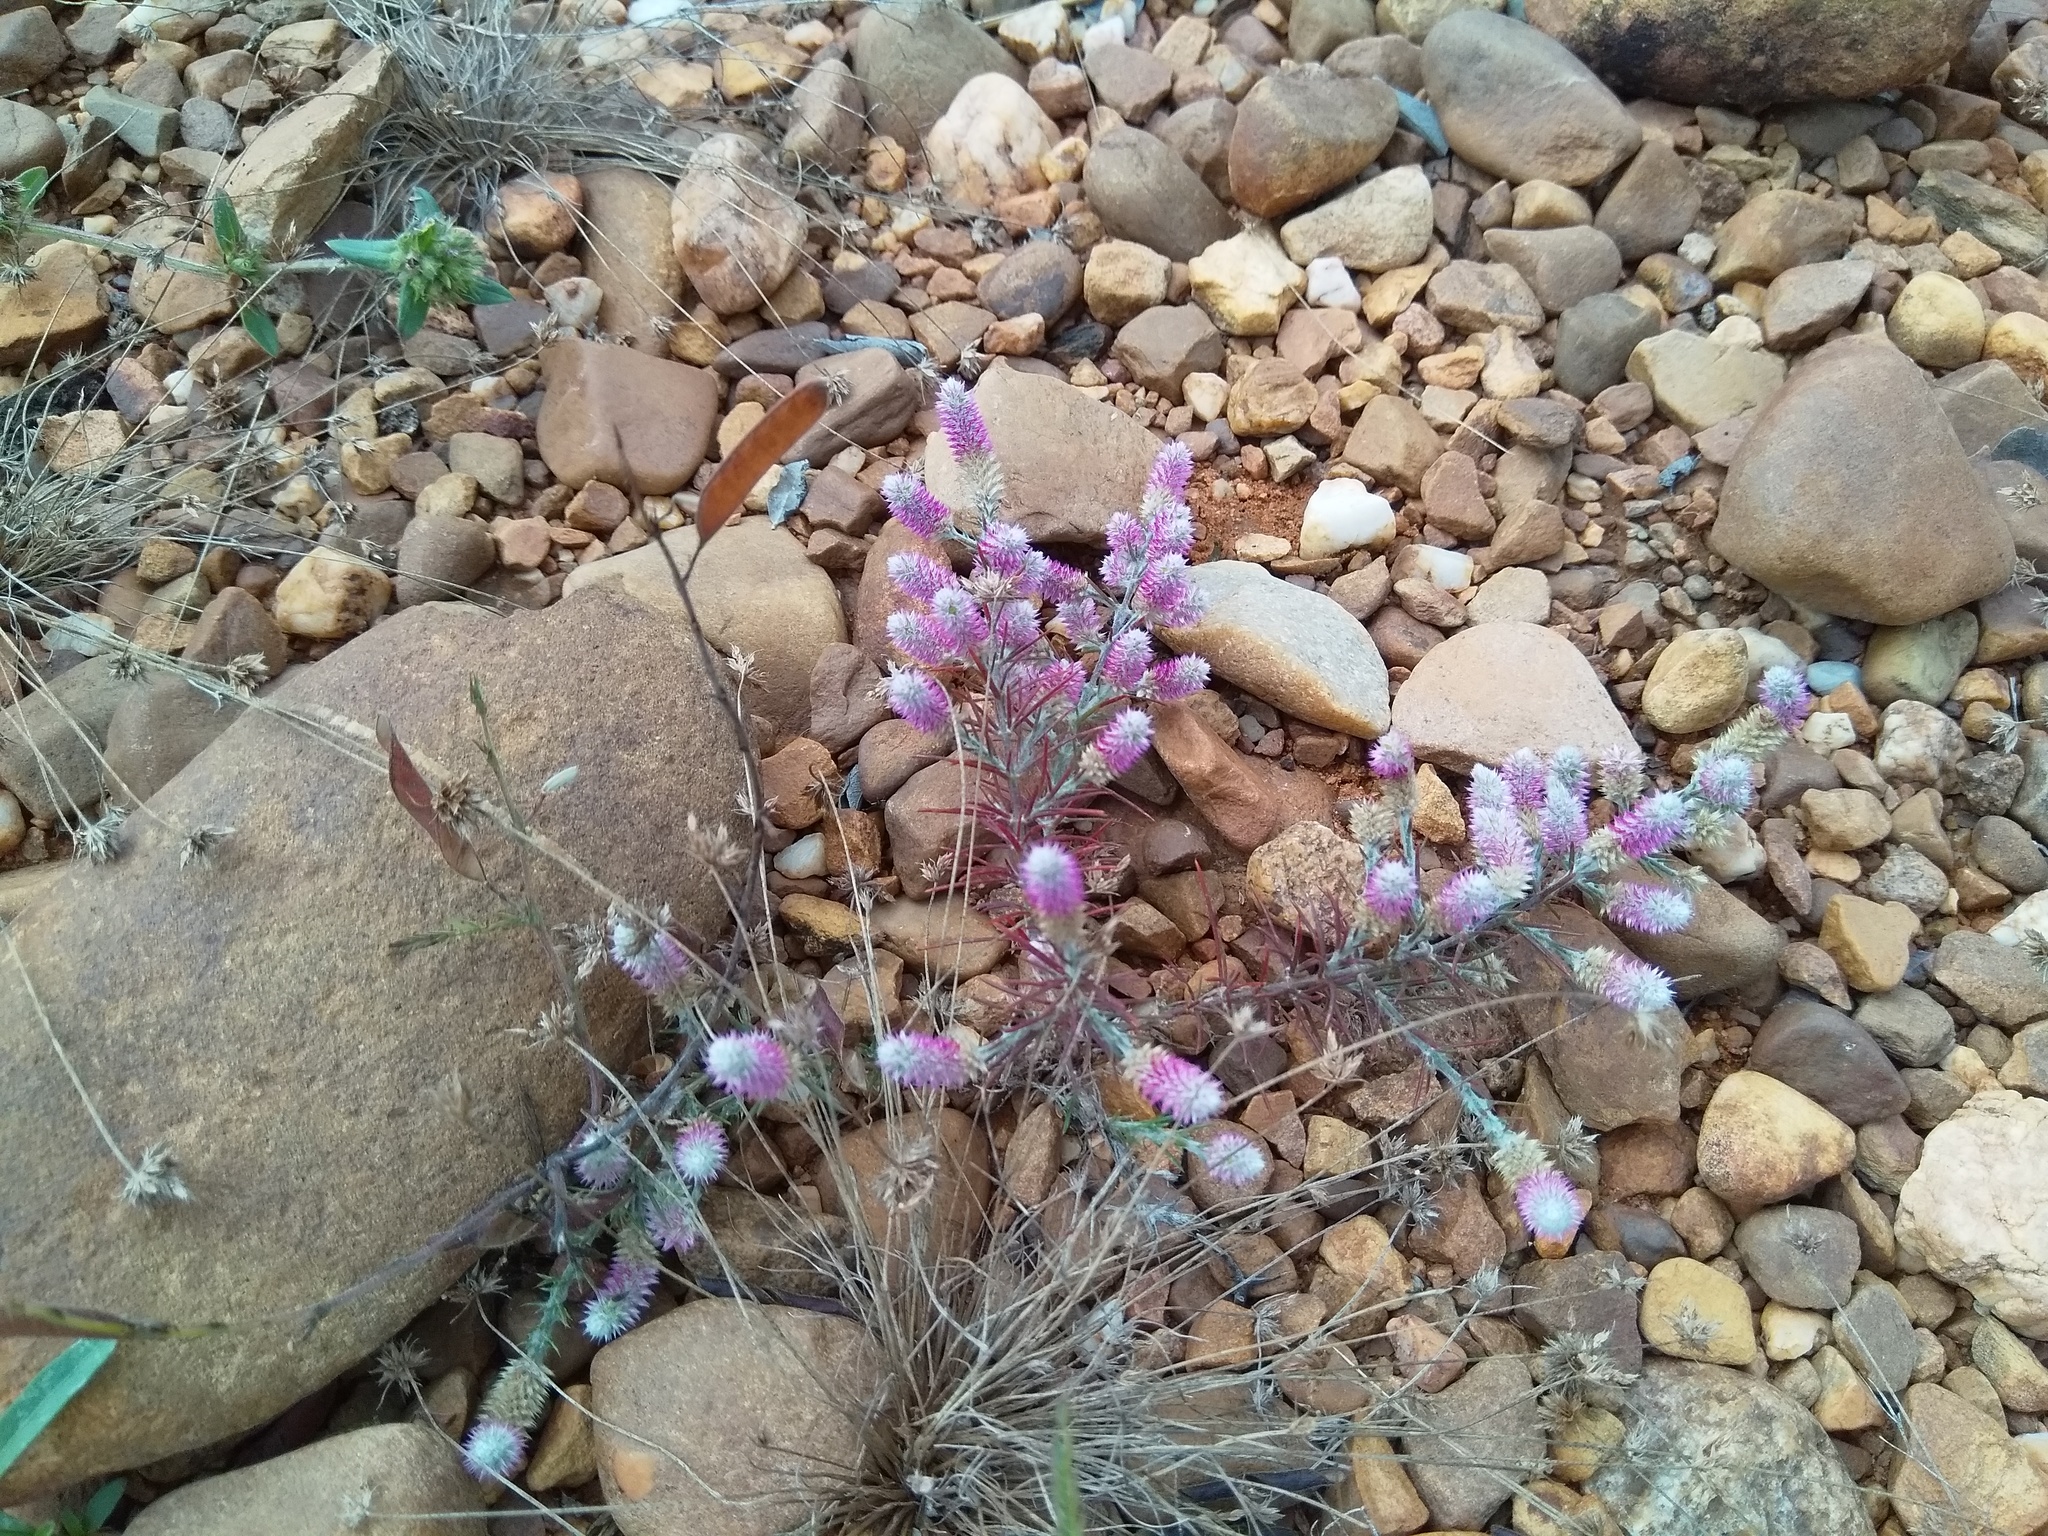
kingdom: Plantae
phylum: Tracheophyta
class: Magnoliopsida
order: Caryophyllales
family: Amaranthaceae
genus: Trichuriella
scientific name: Trichuriella monsoniae
